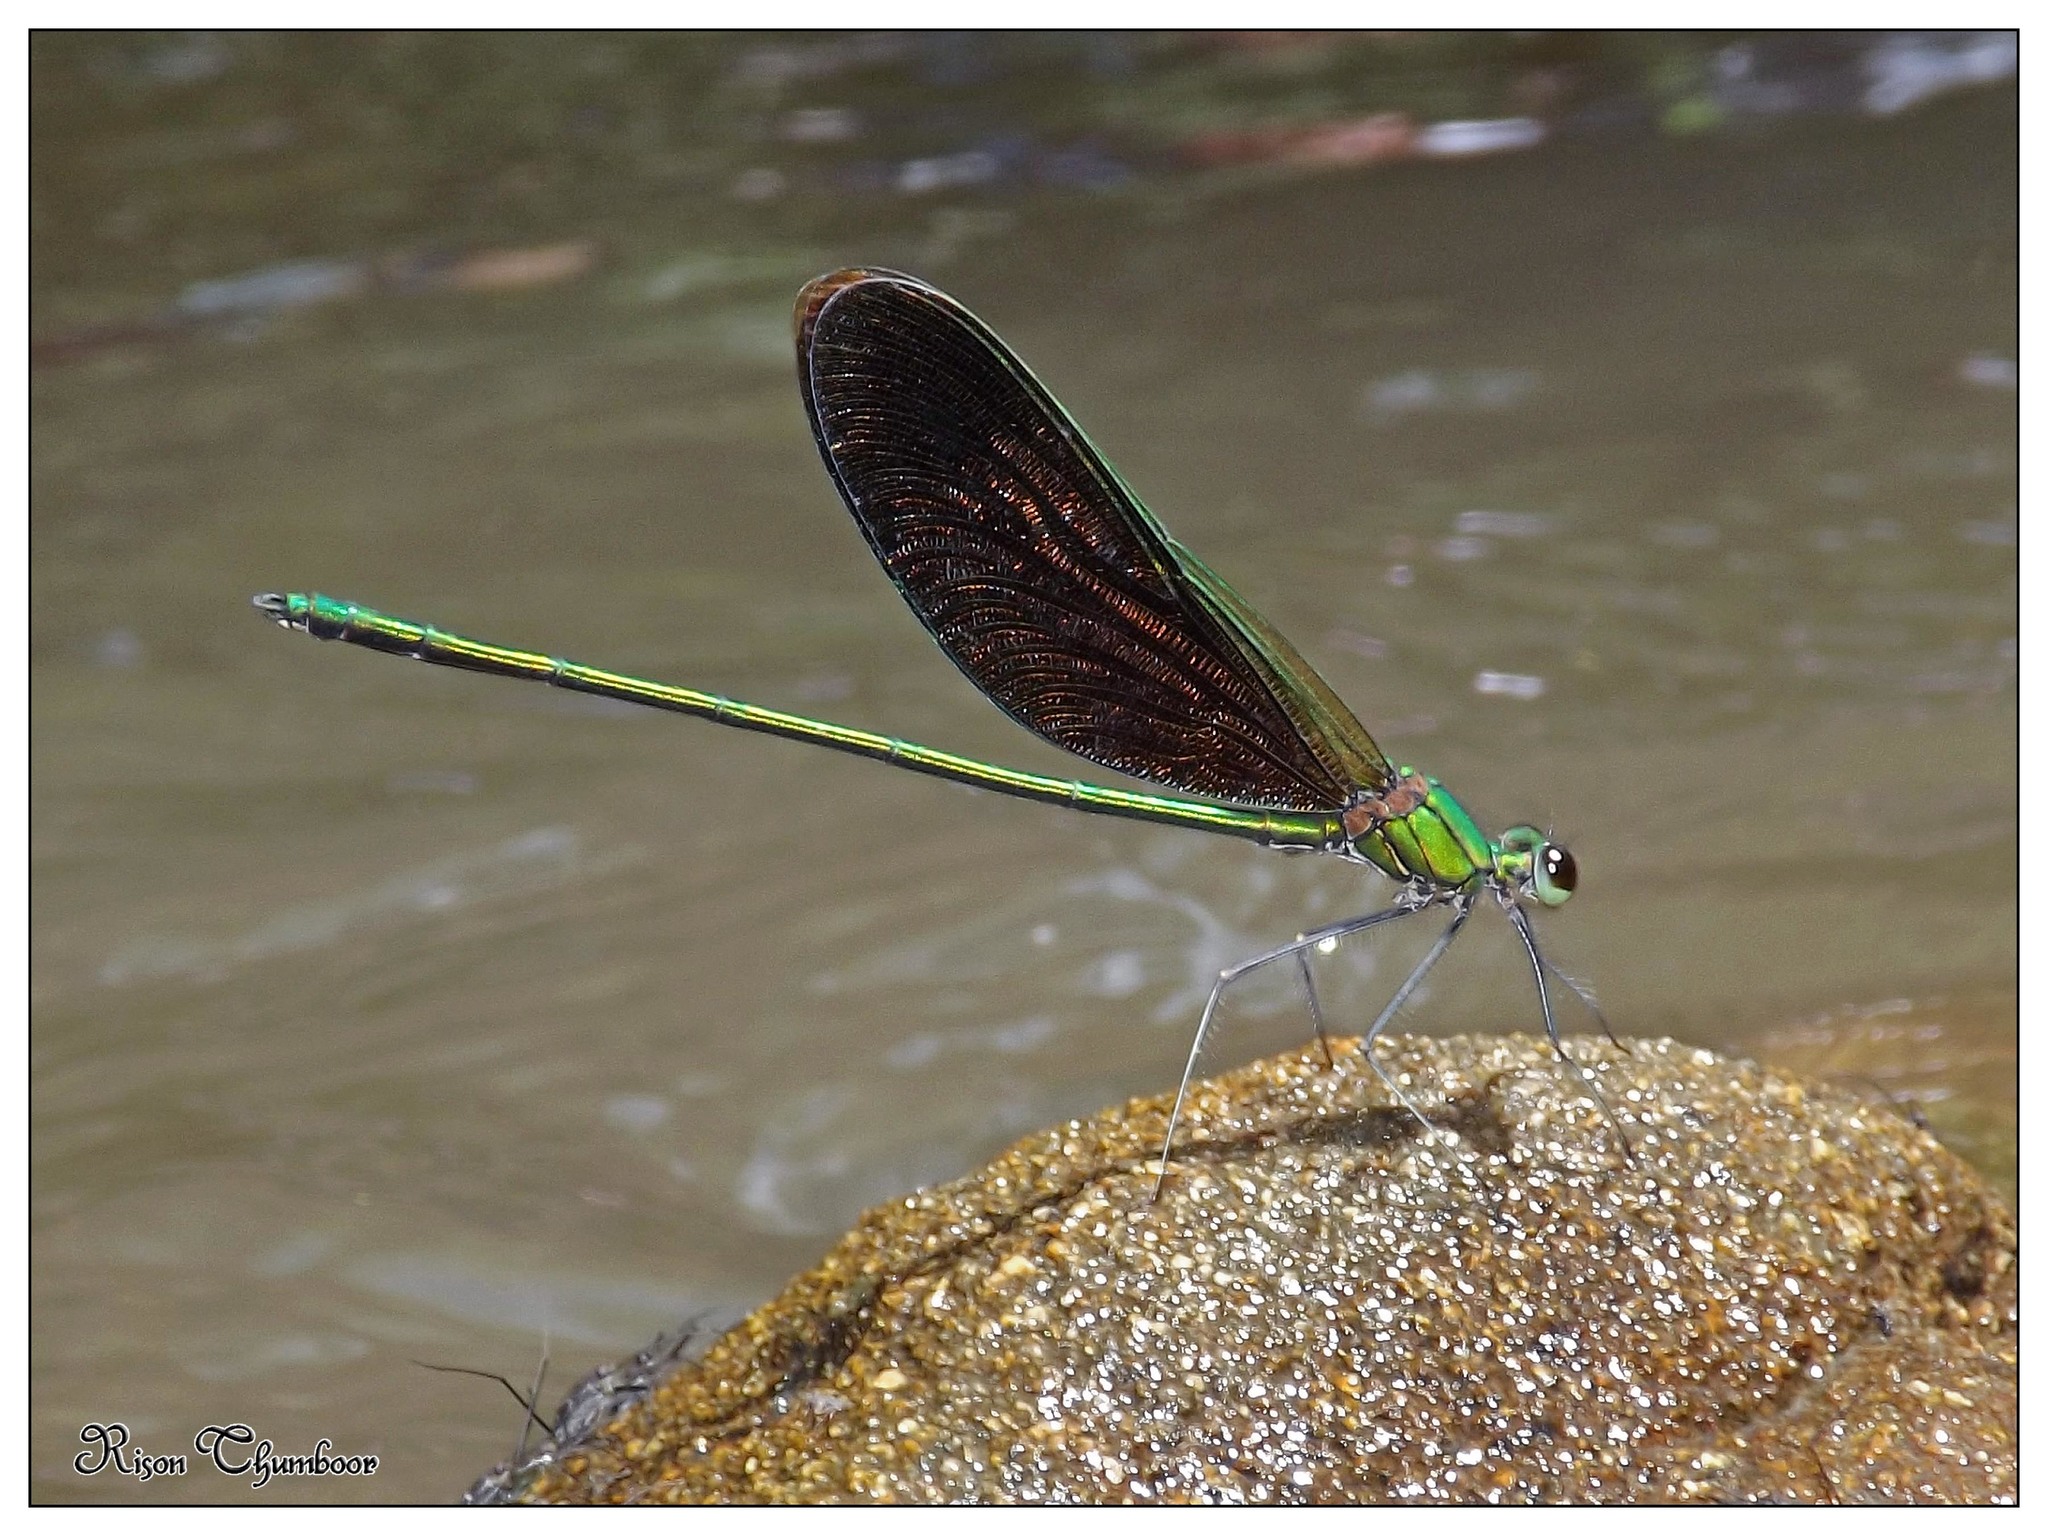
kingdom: Animalia
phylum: Arthropoda
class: Insecta
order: Odonata
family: Calopterygidae
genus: Neurobasis
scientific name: Neurobasis chinensis
